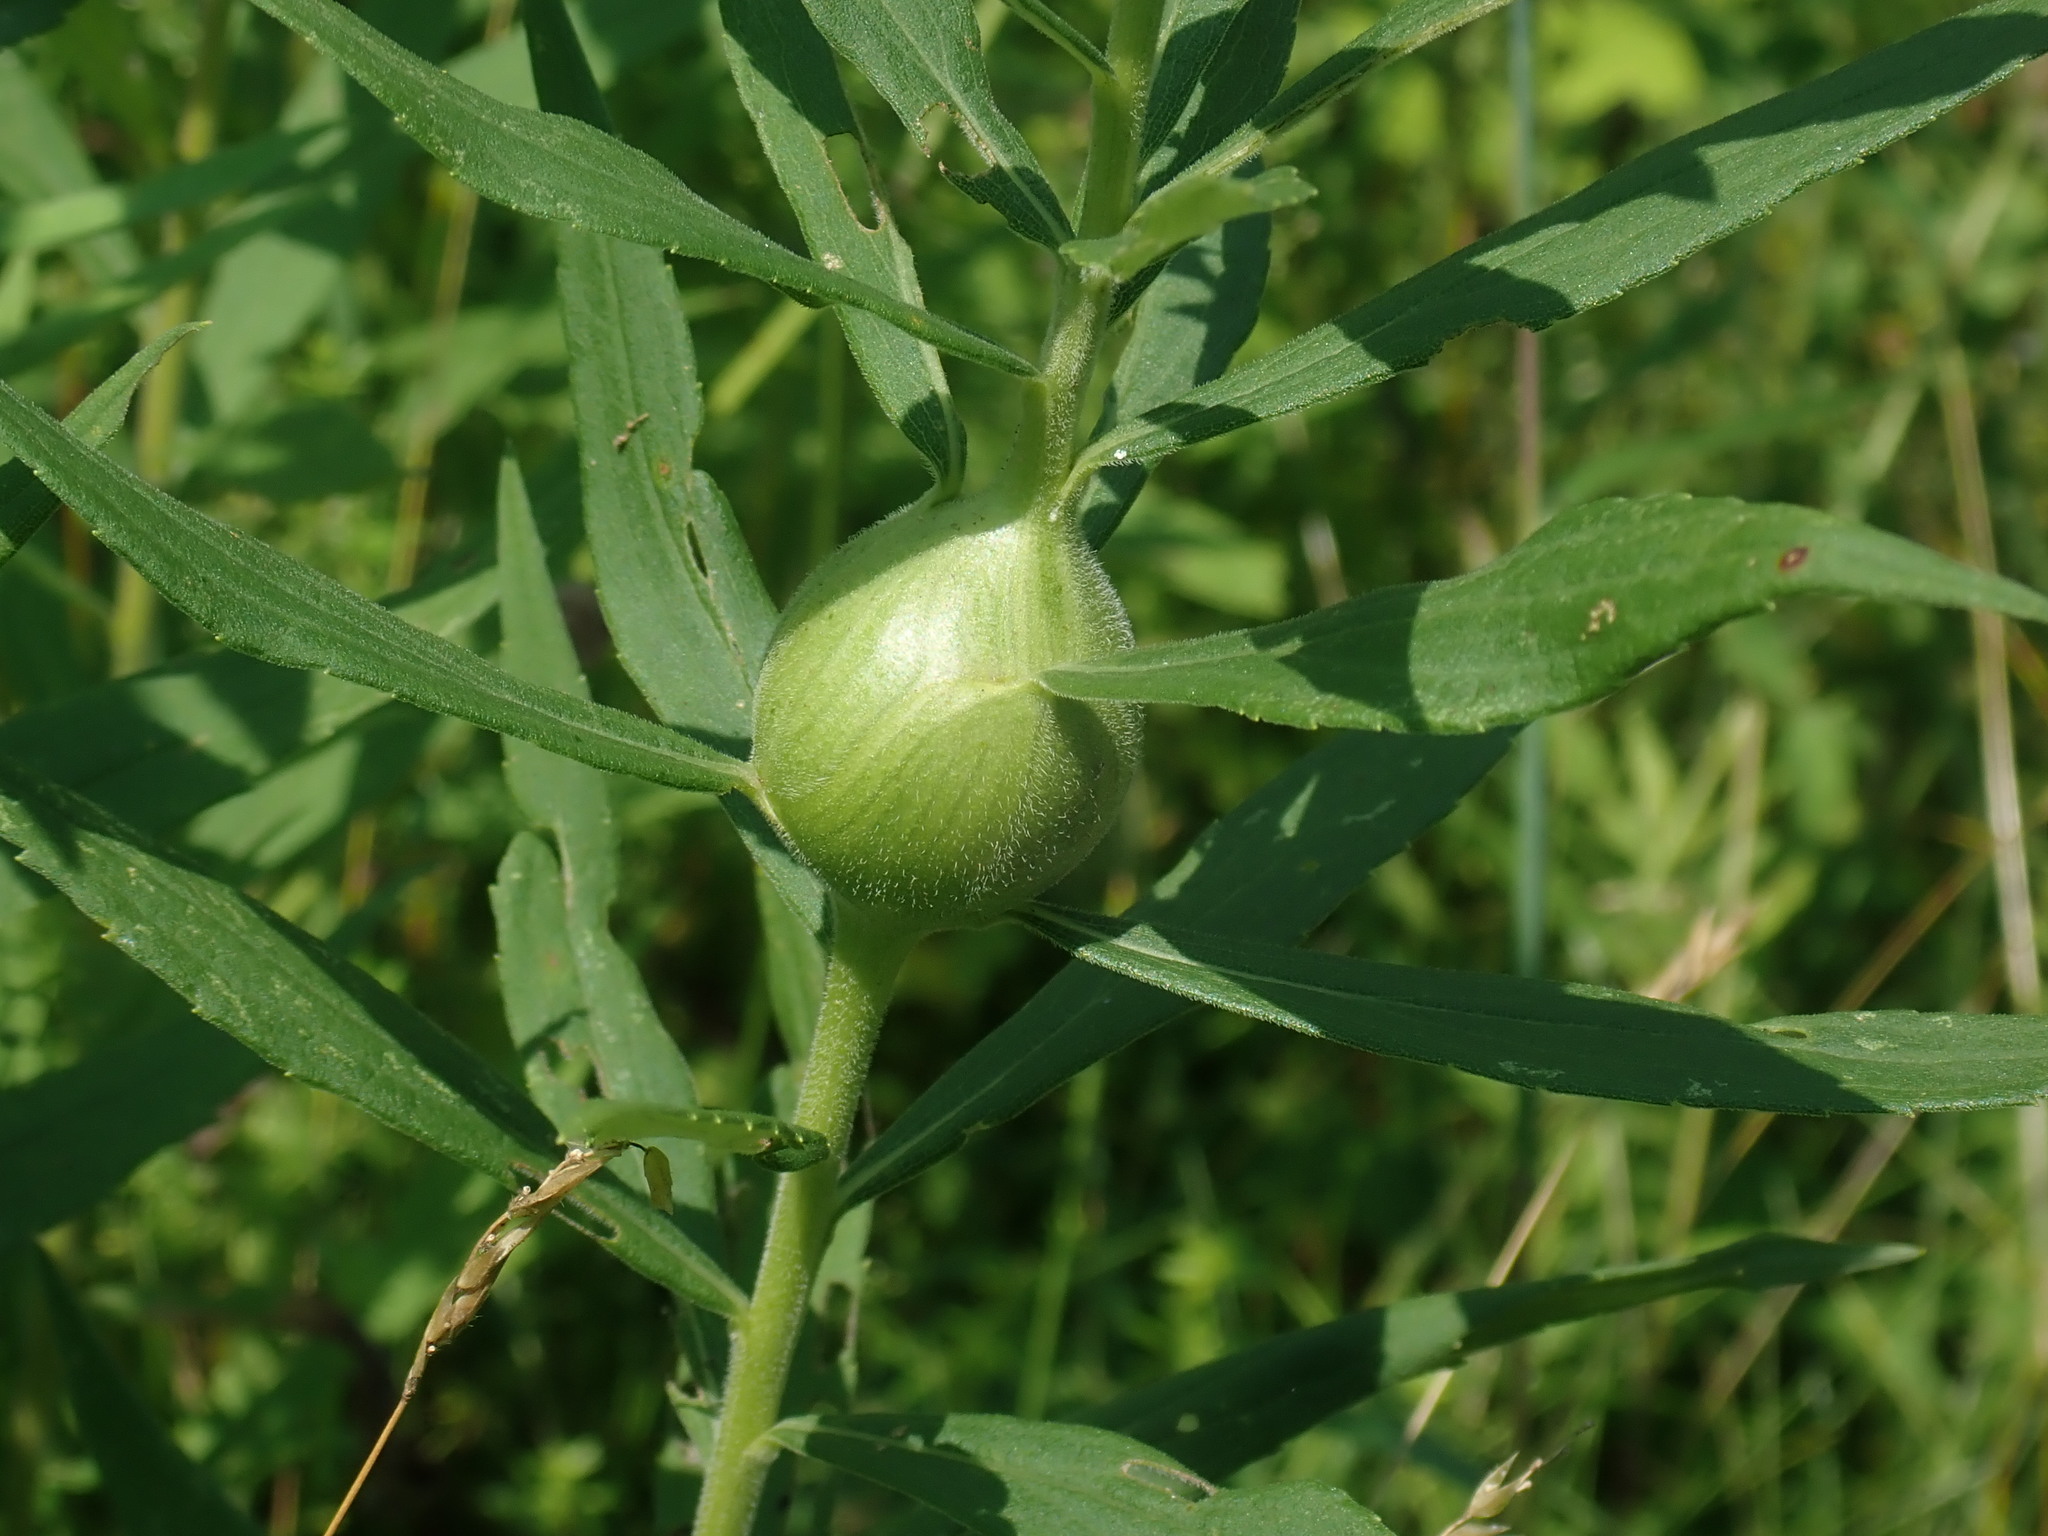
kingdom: Animalia
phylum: Arthropoda
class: Insecta
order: Diptera
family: Tephritidae
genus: Eurosta
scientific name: Eurosta solidaginis
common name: Goldenrod gall fly
